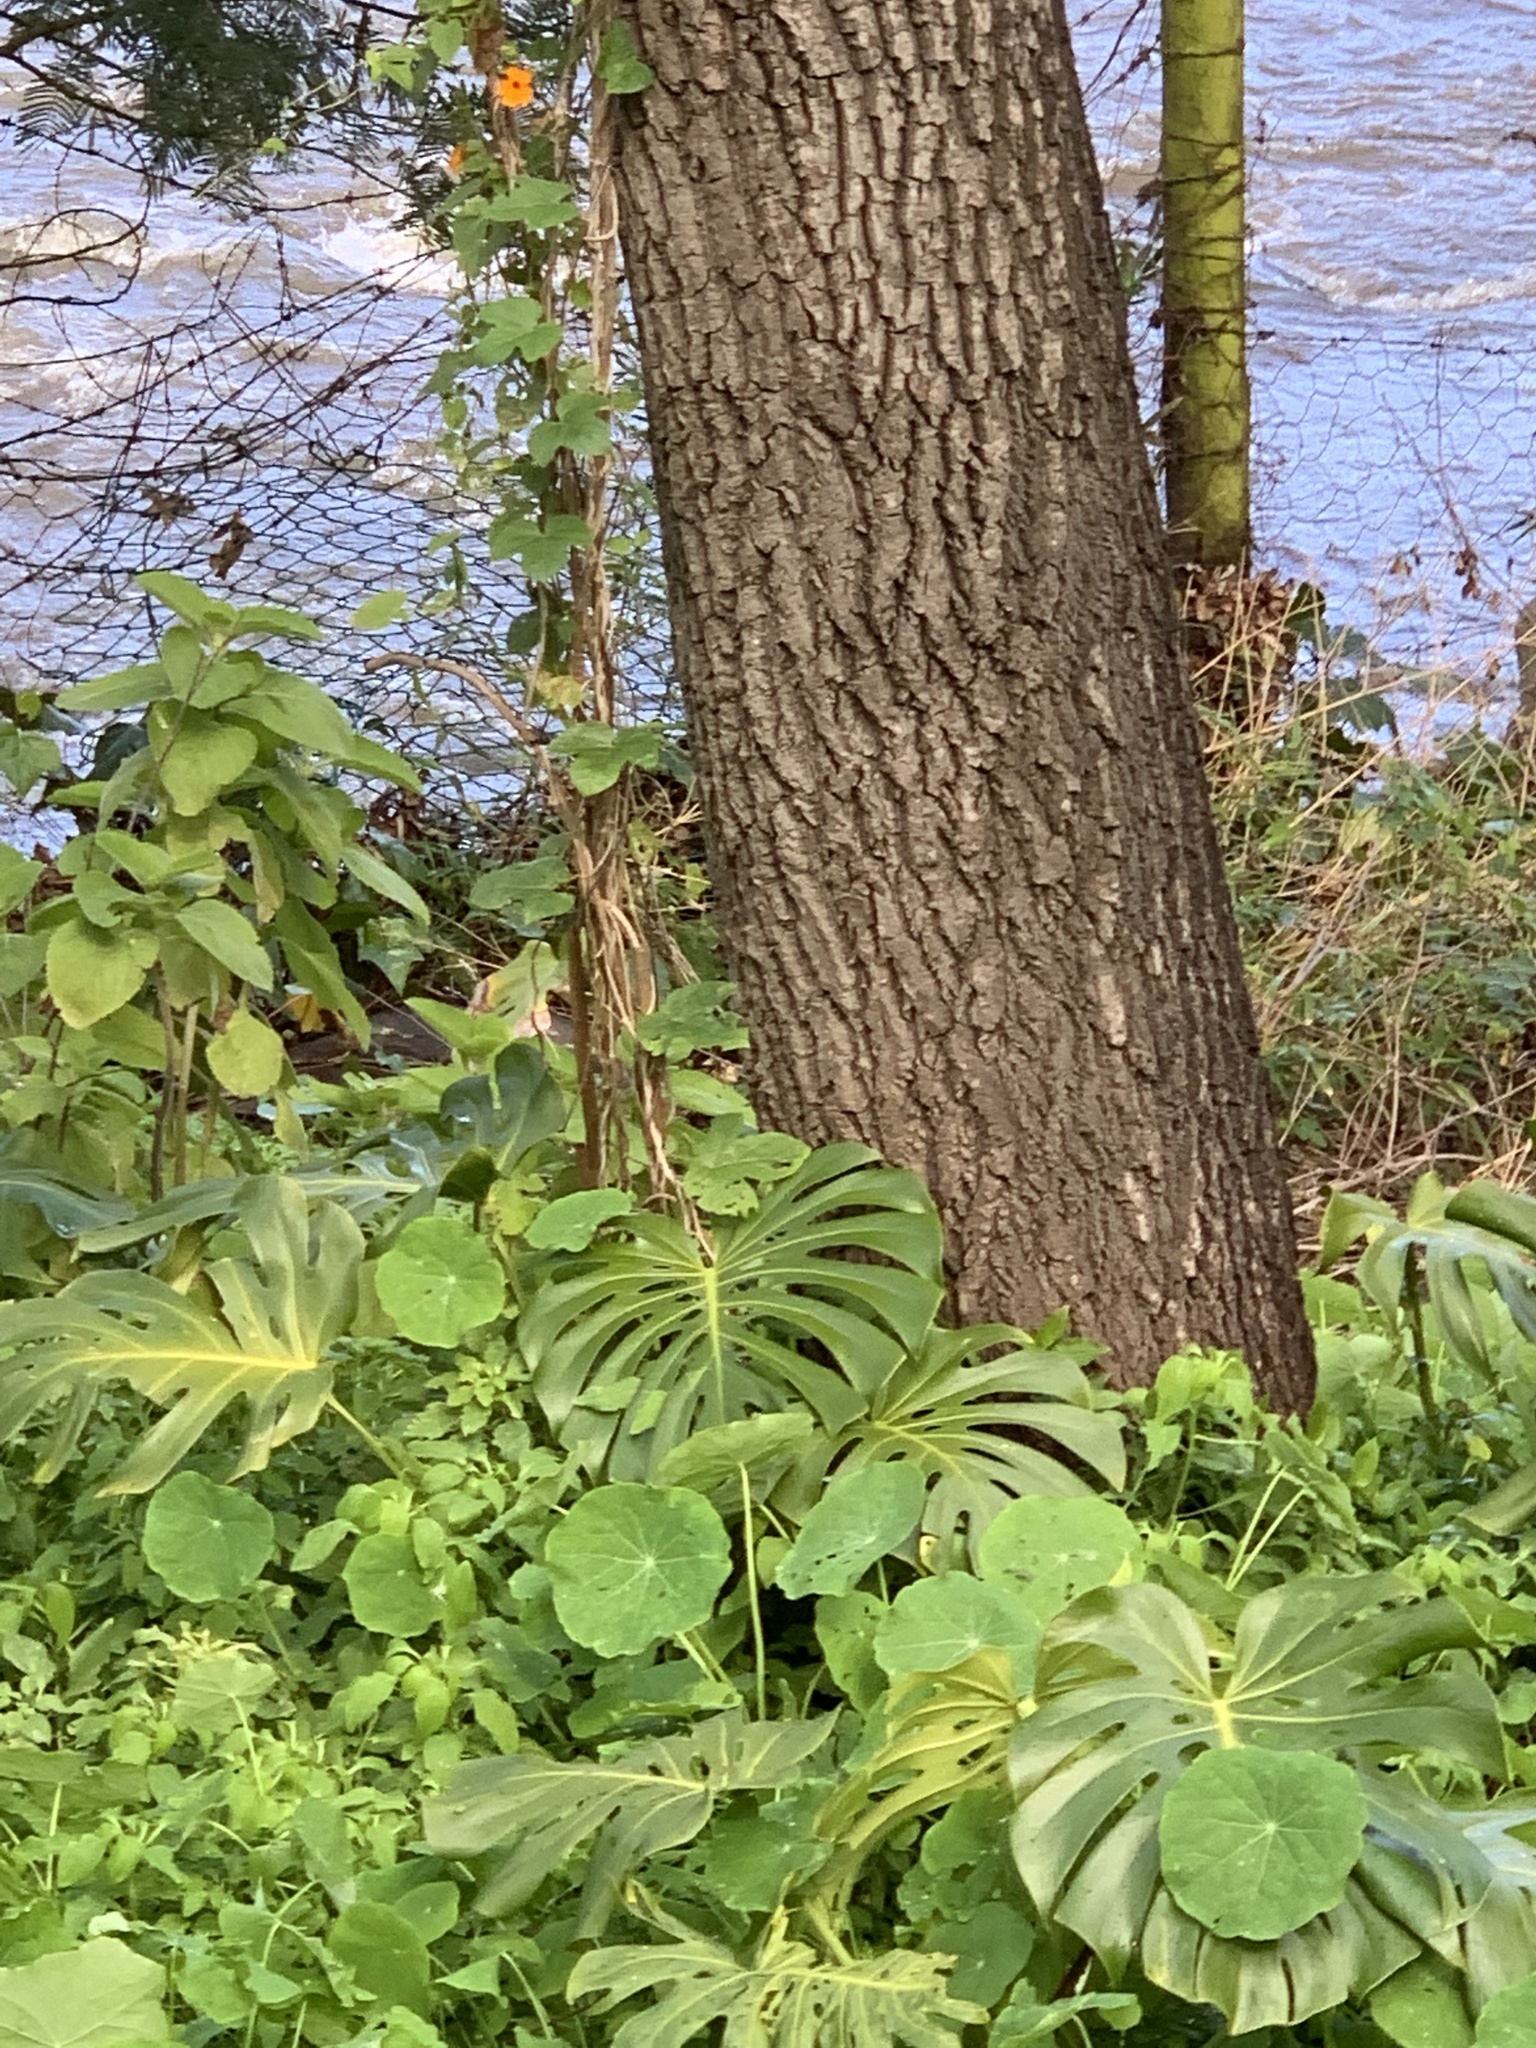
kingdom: Plantae
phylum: Tracheophyta
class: Liliopsida
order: Alismatales
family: Araceae
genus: Monstera
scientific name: Monstera deliciosa
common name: Cut-leaf-philodendron
